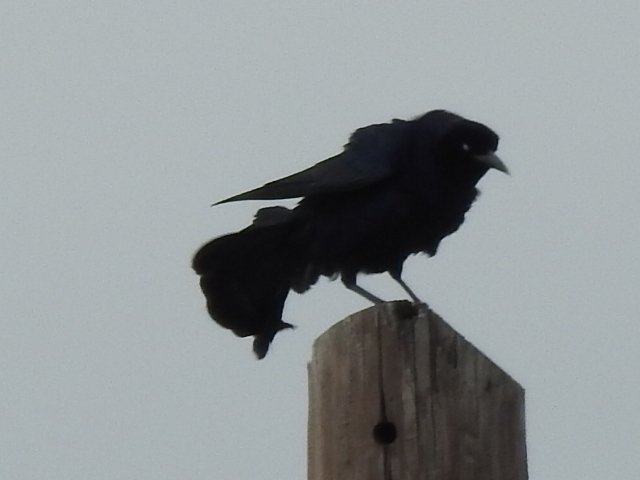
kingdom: Animalia
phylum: Chordata
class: Aves
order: Passeriformes
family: Icteridae
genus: Quiscalus
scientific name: Quiscalus mexicanus
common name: Great-tailed grackle
